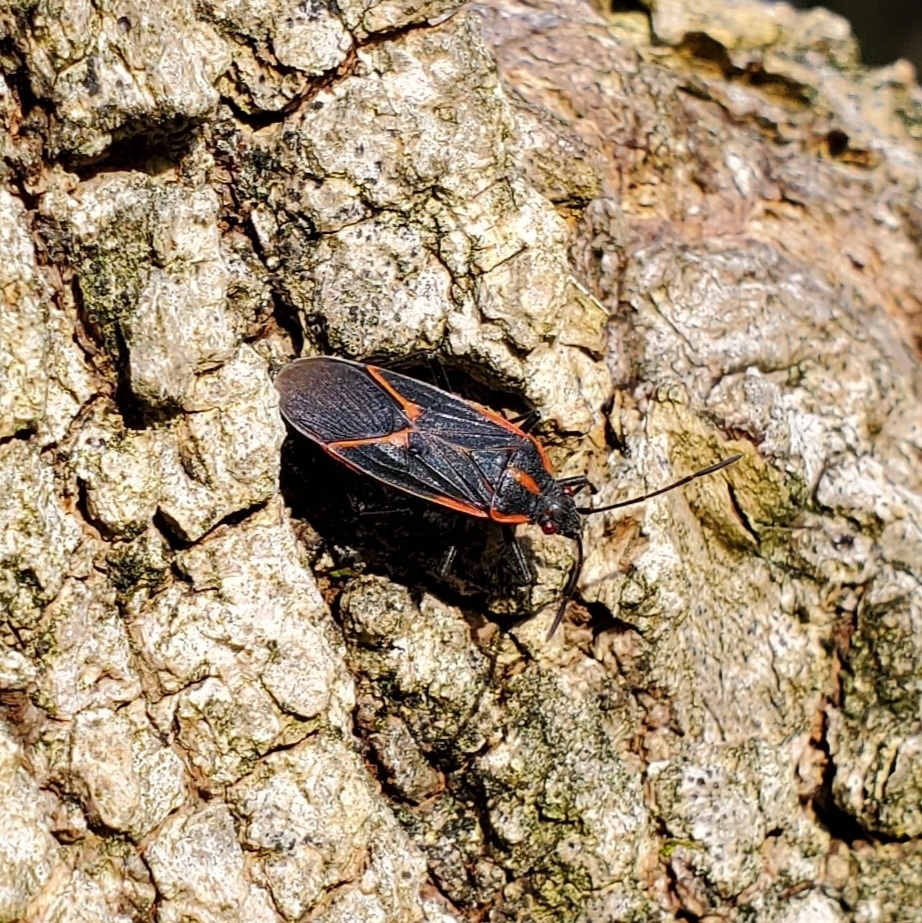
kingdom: Animalia
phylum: Arthropoda
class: Insecta
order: Hemiptera
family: Rhopalidae
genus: Boisea
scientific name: Boisea trivittata
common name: Boxelder bug
